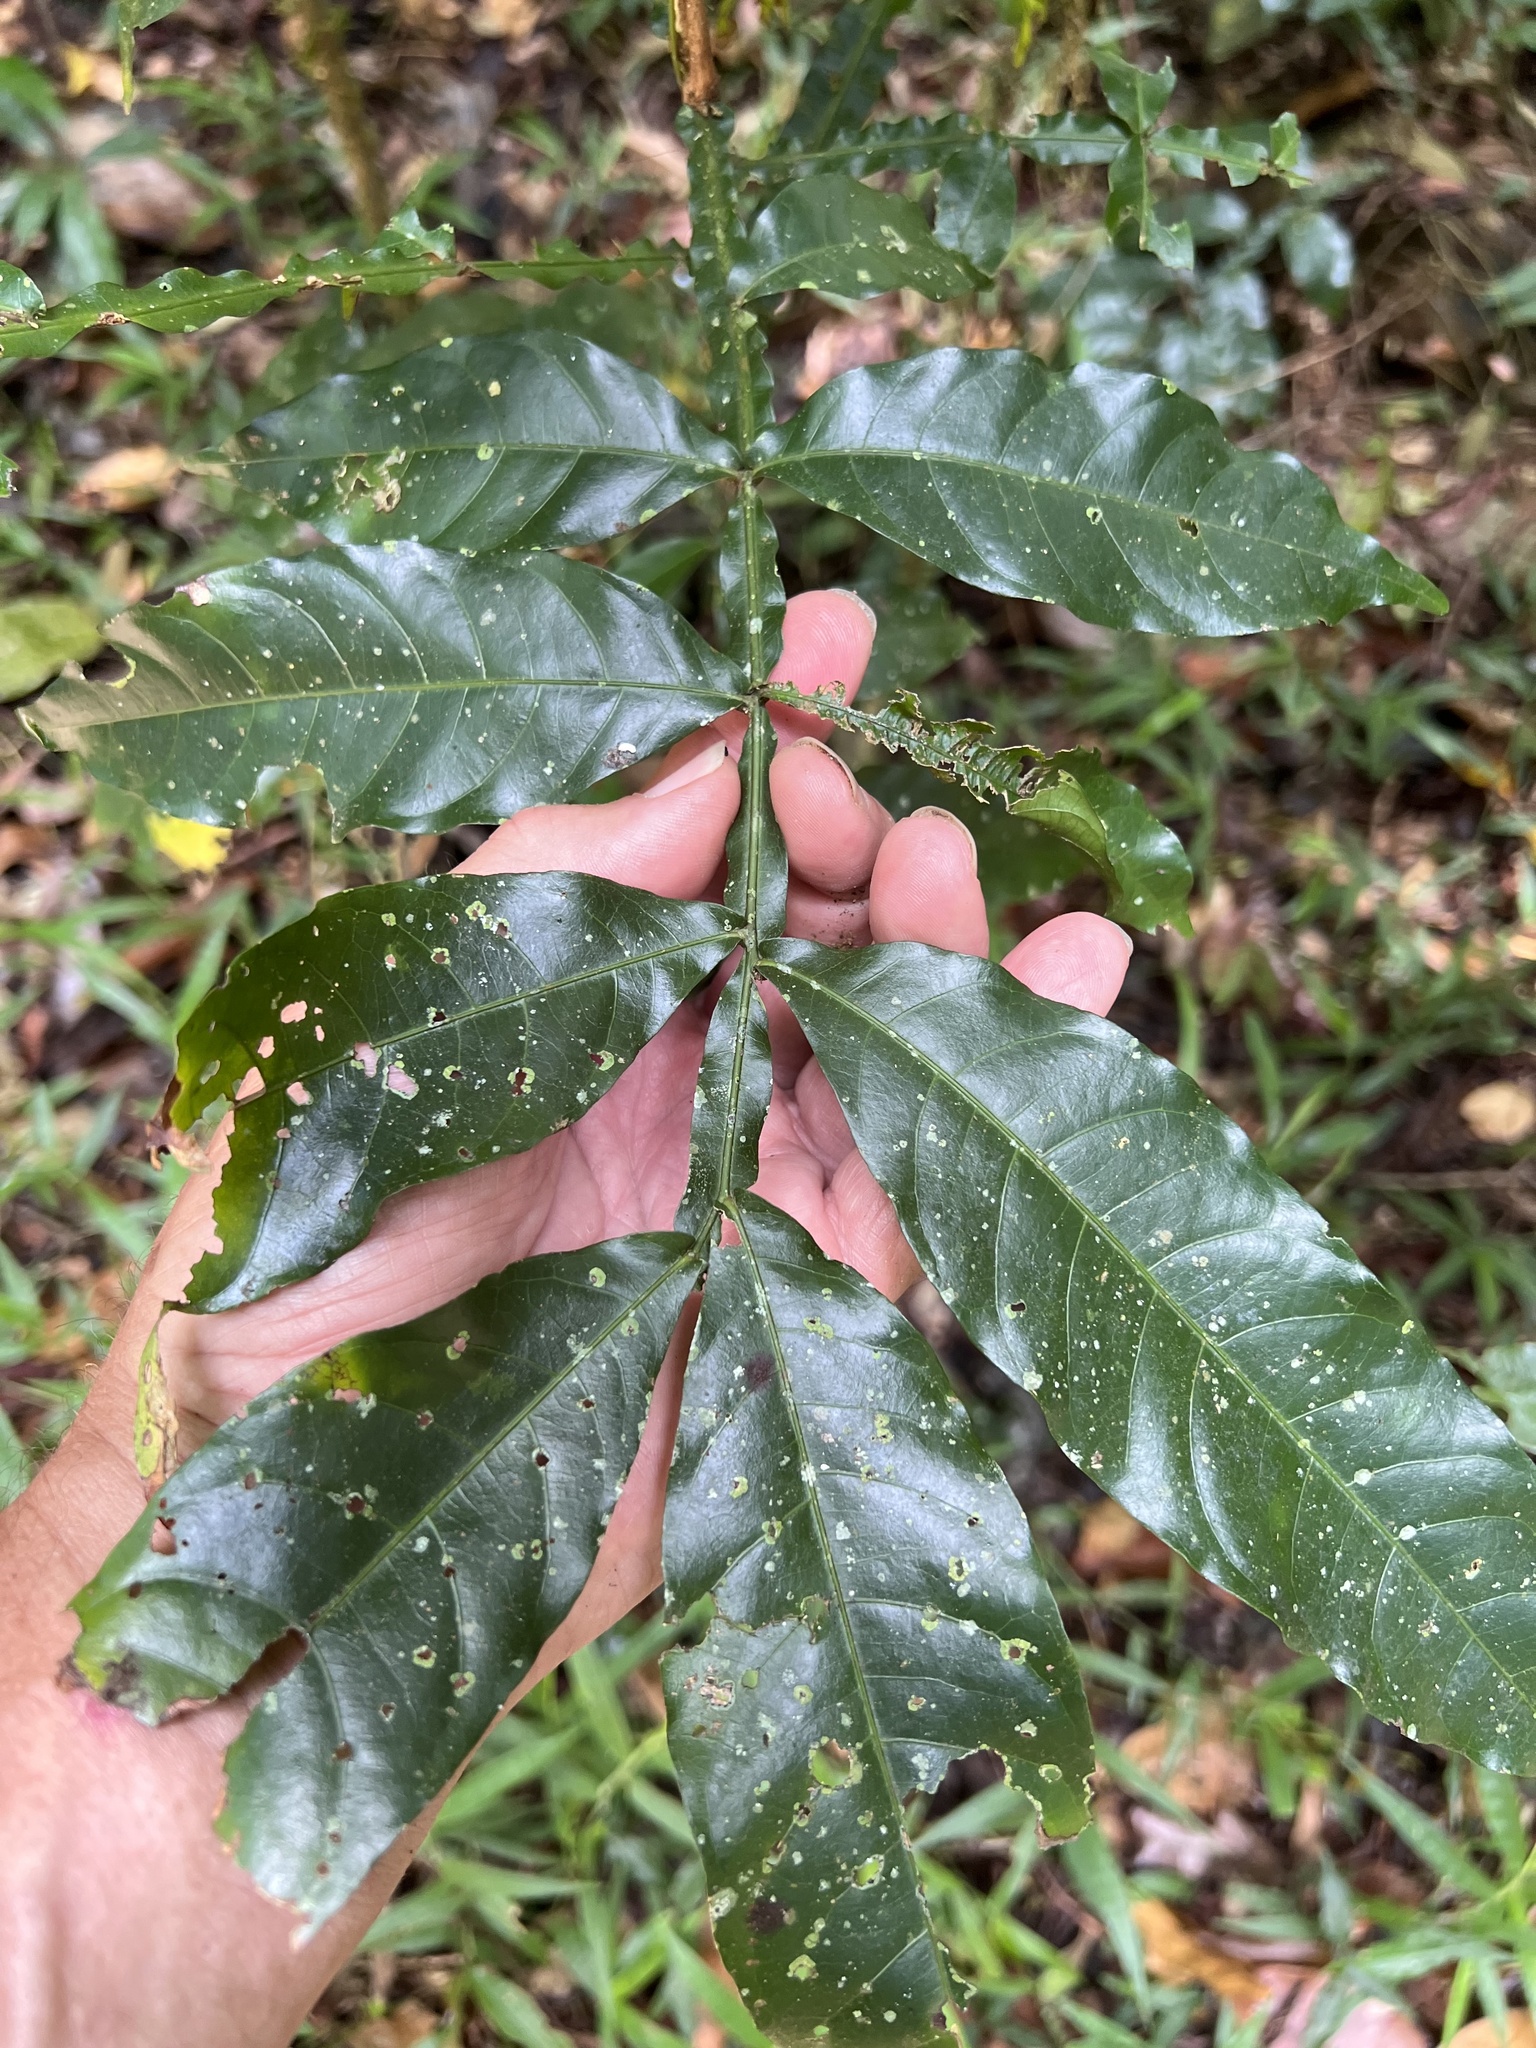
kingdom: Plantae
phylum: Tracheophyta
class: Magnoliopsida
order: Sapindales
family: Sapindaceae
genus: Harpullia
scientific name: Harpullia rhyticarpa
